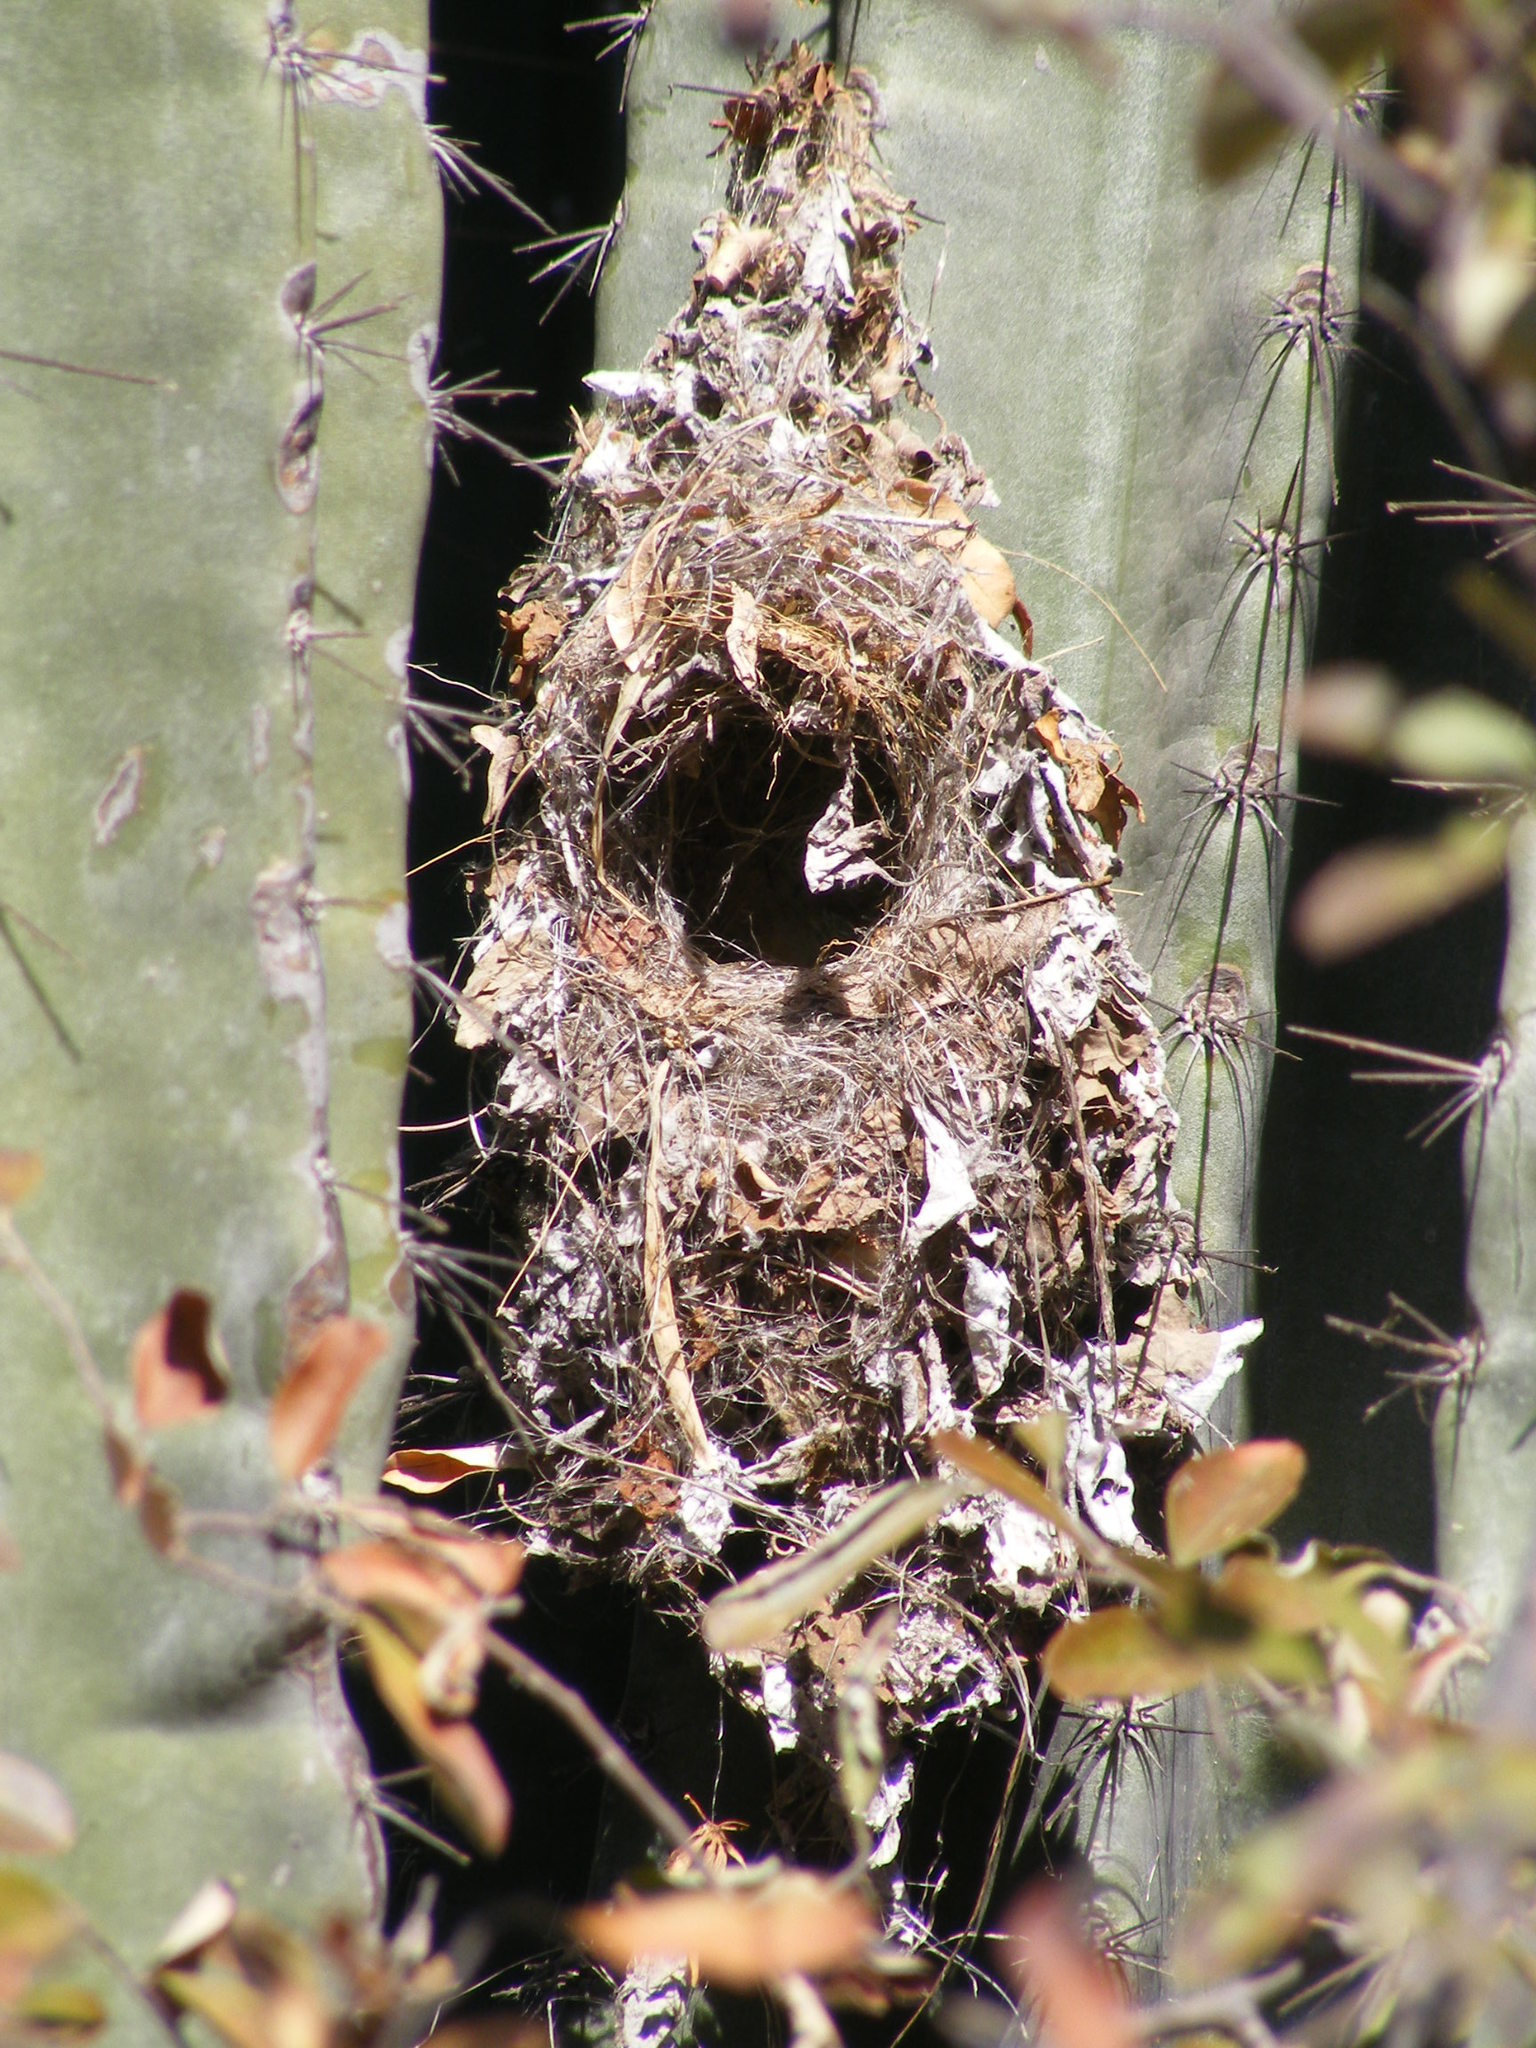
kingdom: Animalia
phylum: Chordata
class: Aves
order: Passeriformes
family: Nectariniidae
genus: Cinnyris
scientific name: Cinnyris talatala
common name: White-bellied sunbird
